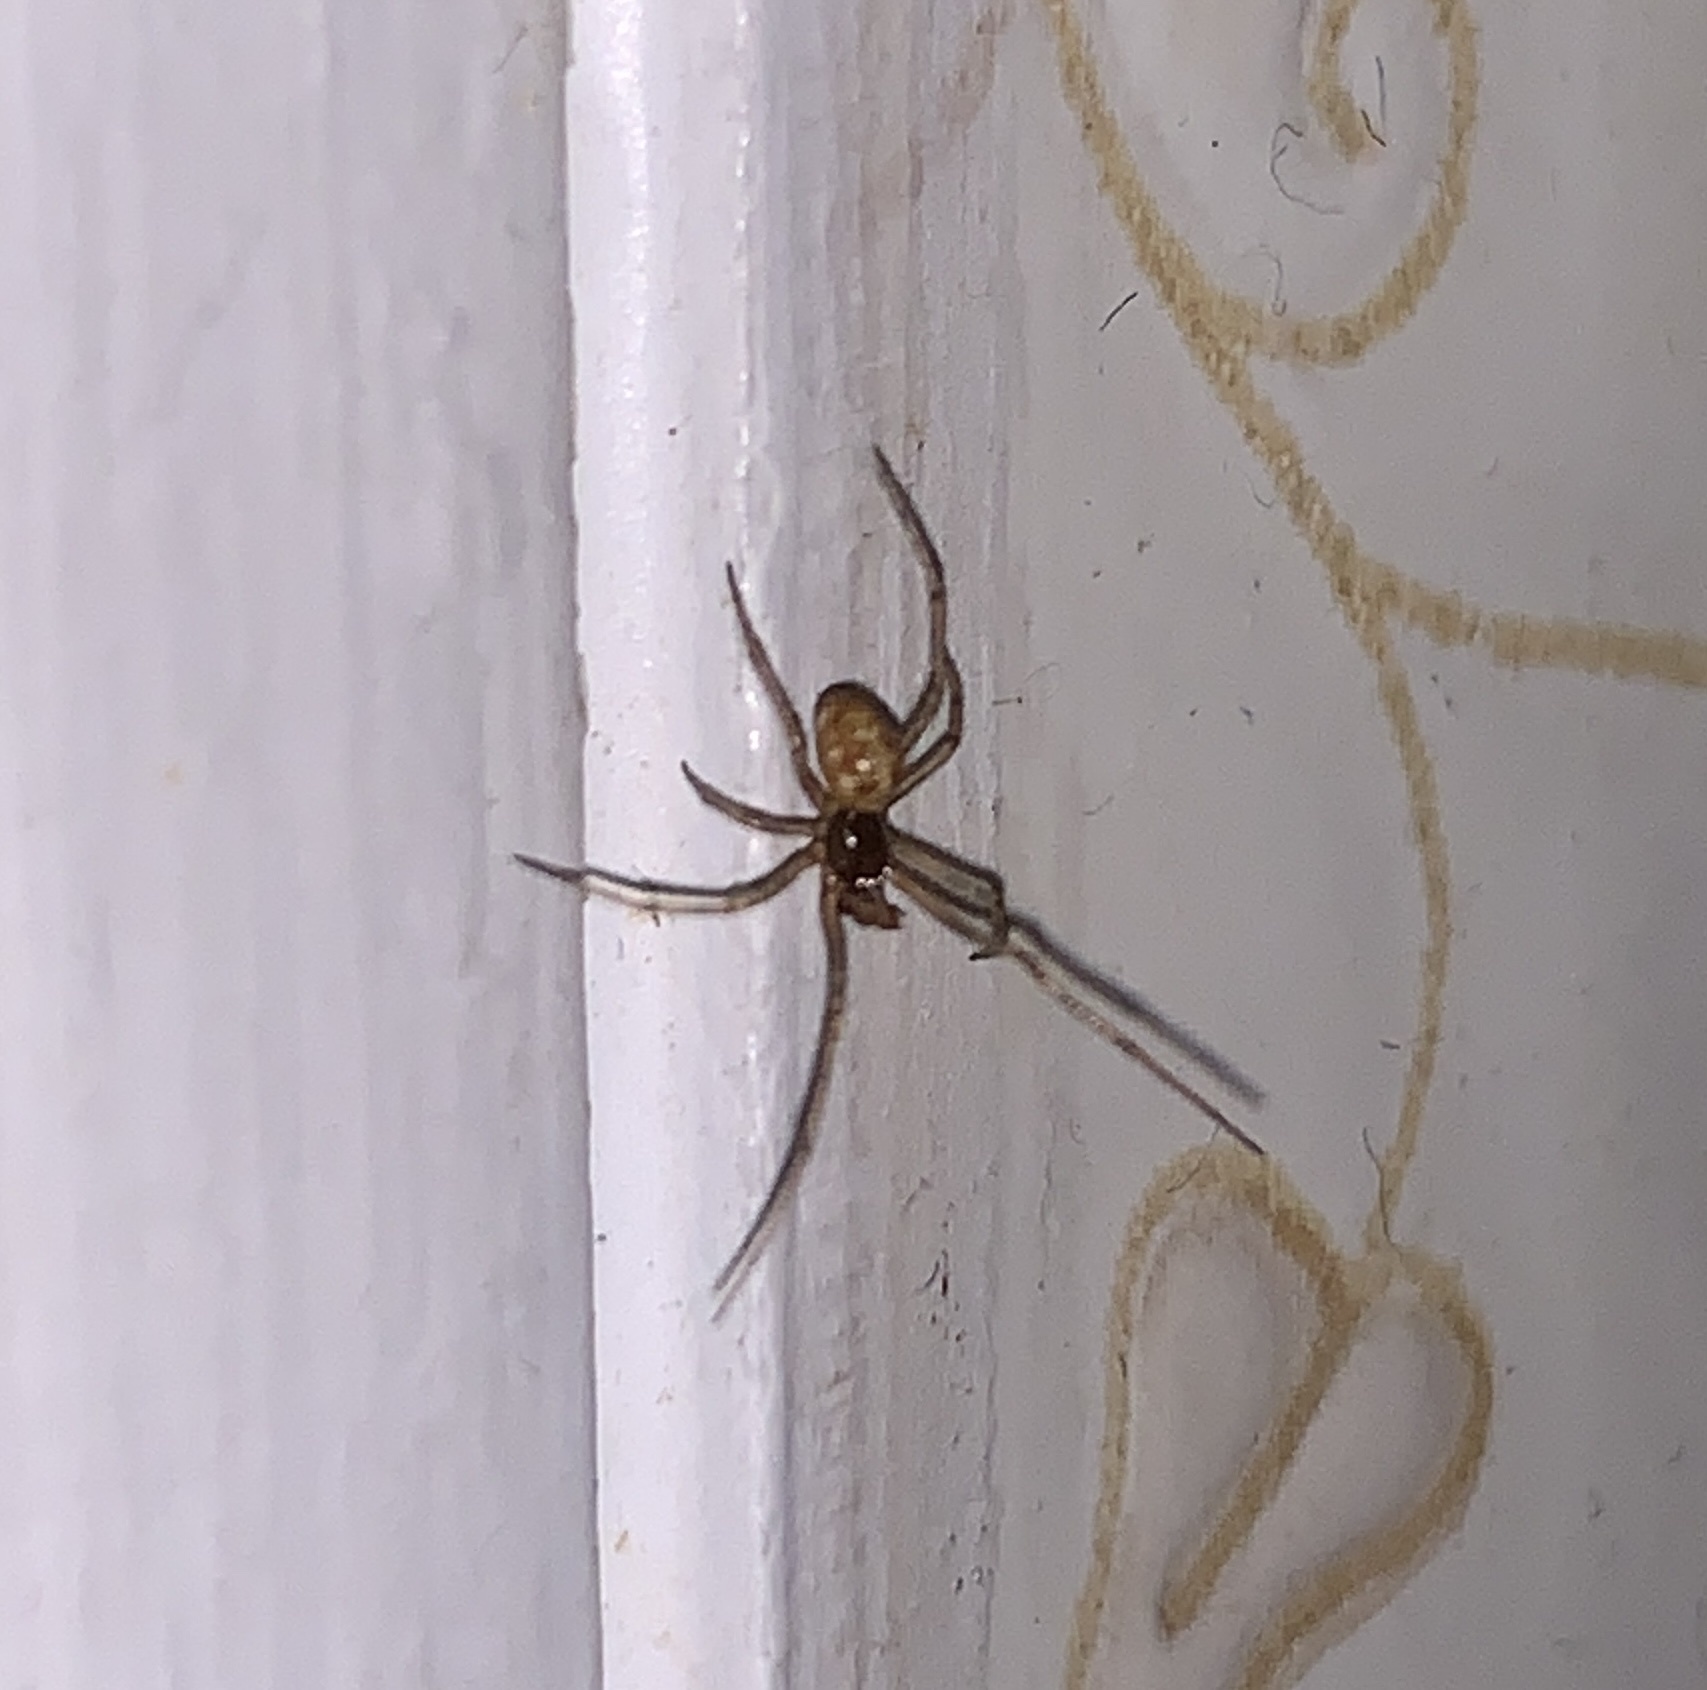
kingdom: Animalia
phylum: Arthropoda
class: Arachnida
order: Araneae
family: Theridiidae
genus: Steatoda
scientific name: Steatoda triangulosa
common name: Triangulate bud spider
